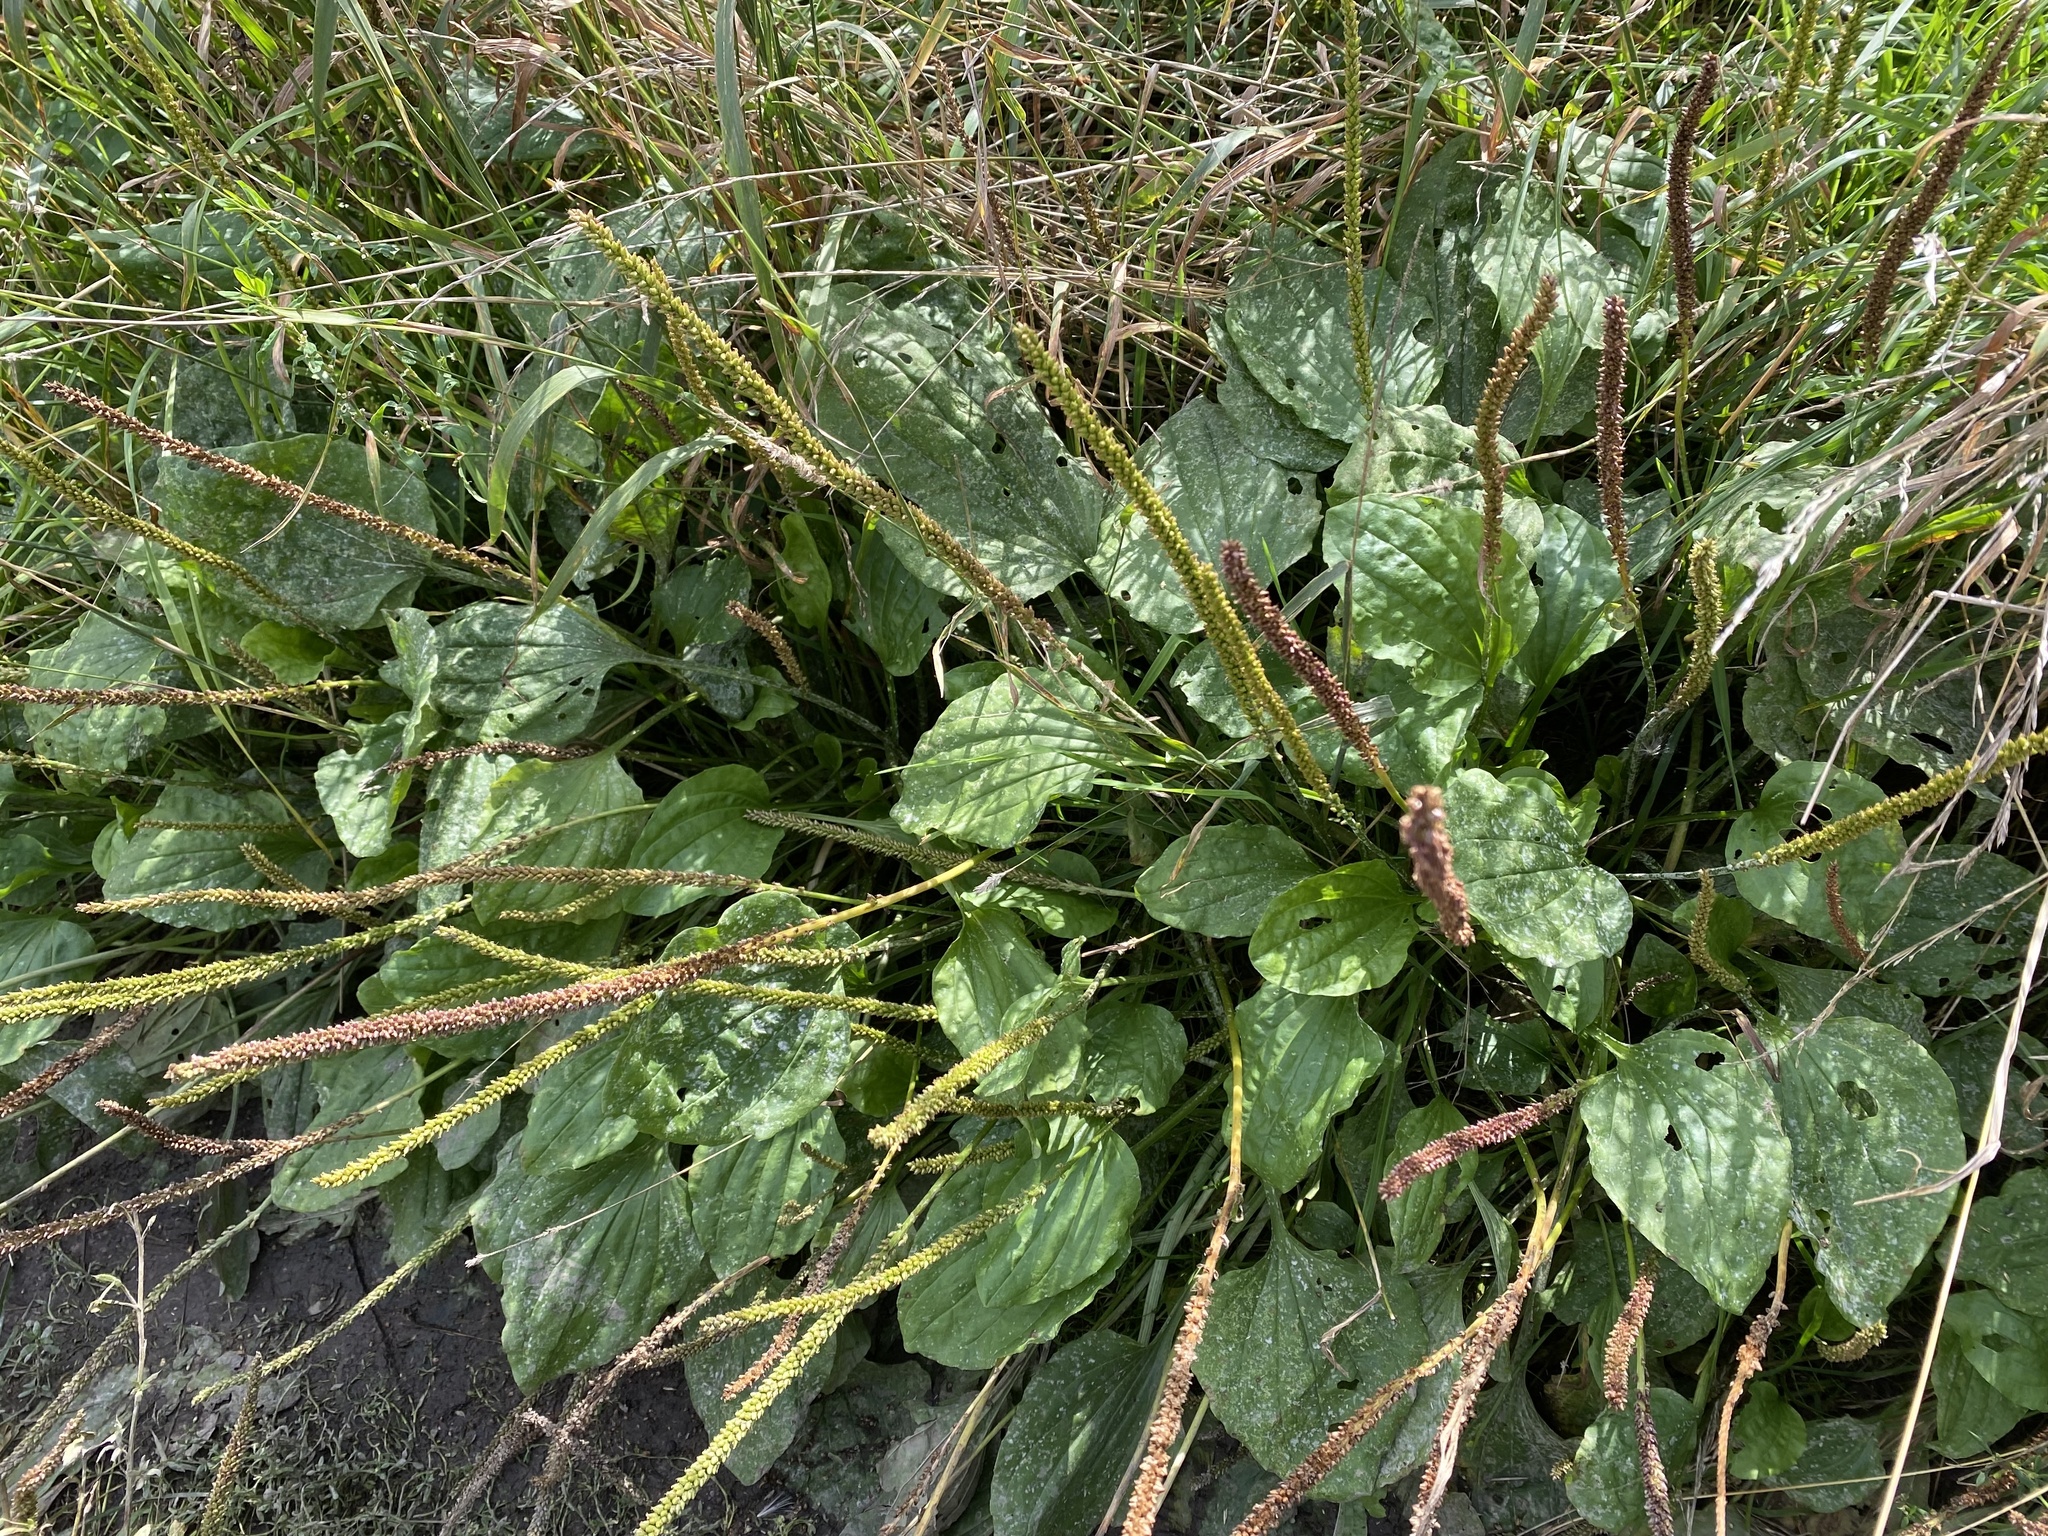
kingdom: Plantae
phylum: Tracheophyta
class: Magnoliopsida
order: Lamiales
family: Plantaginaceae
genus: Plantago
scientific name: Plantago major
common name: Common plantain
